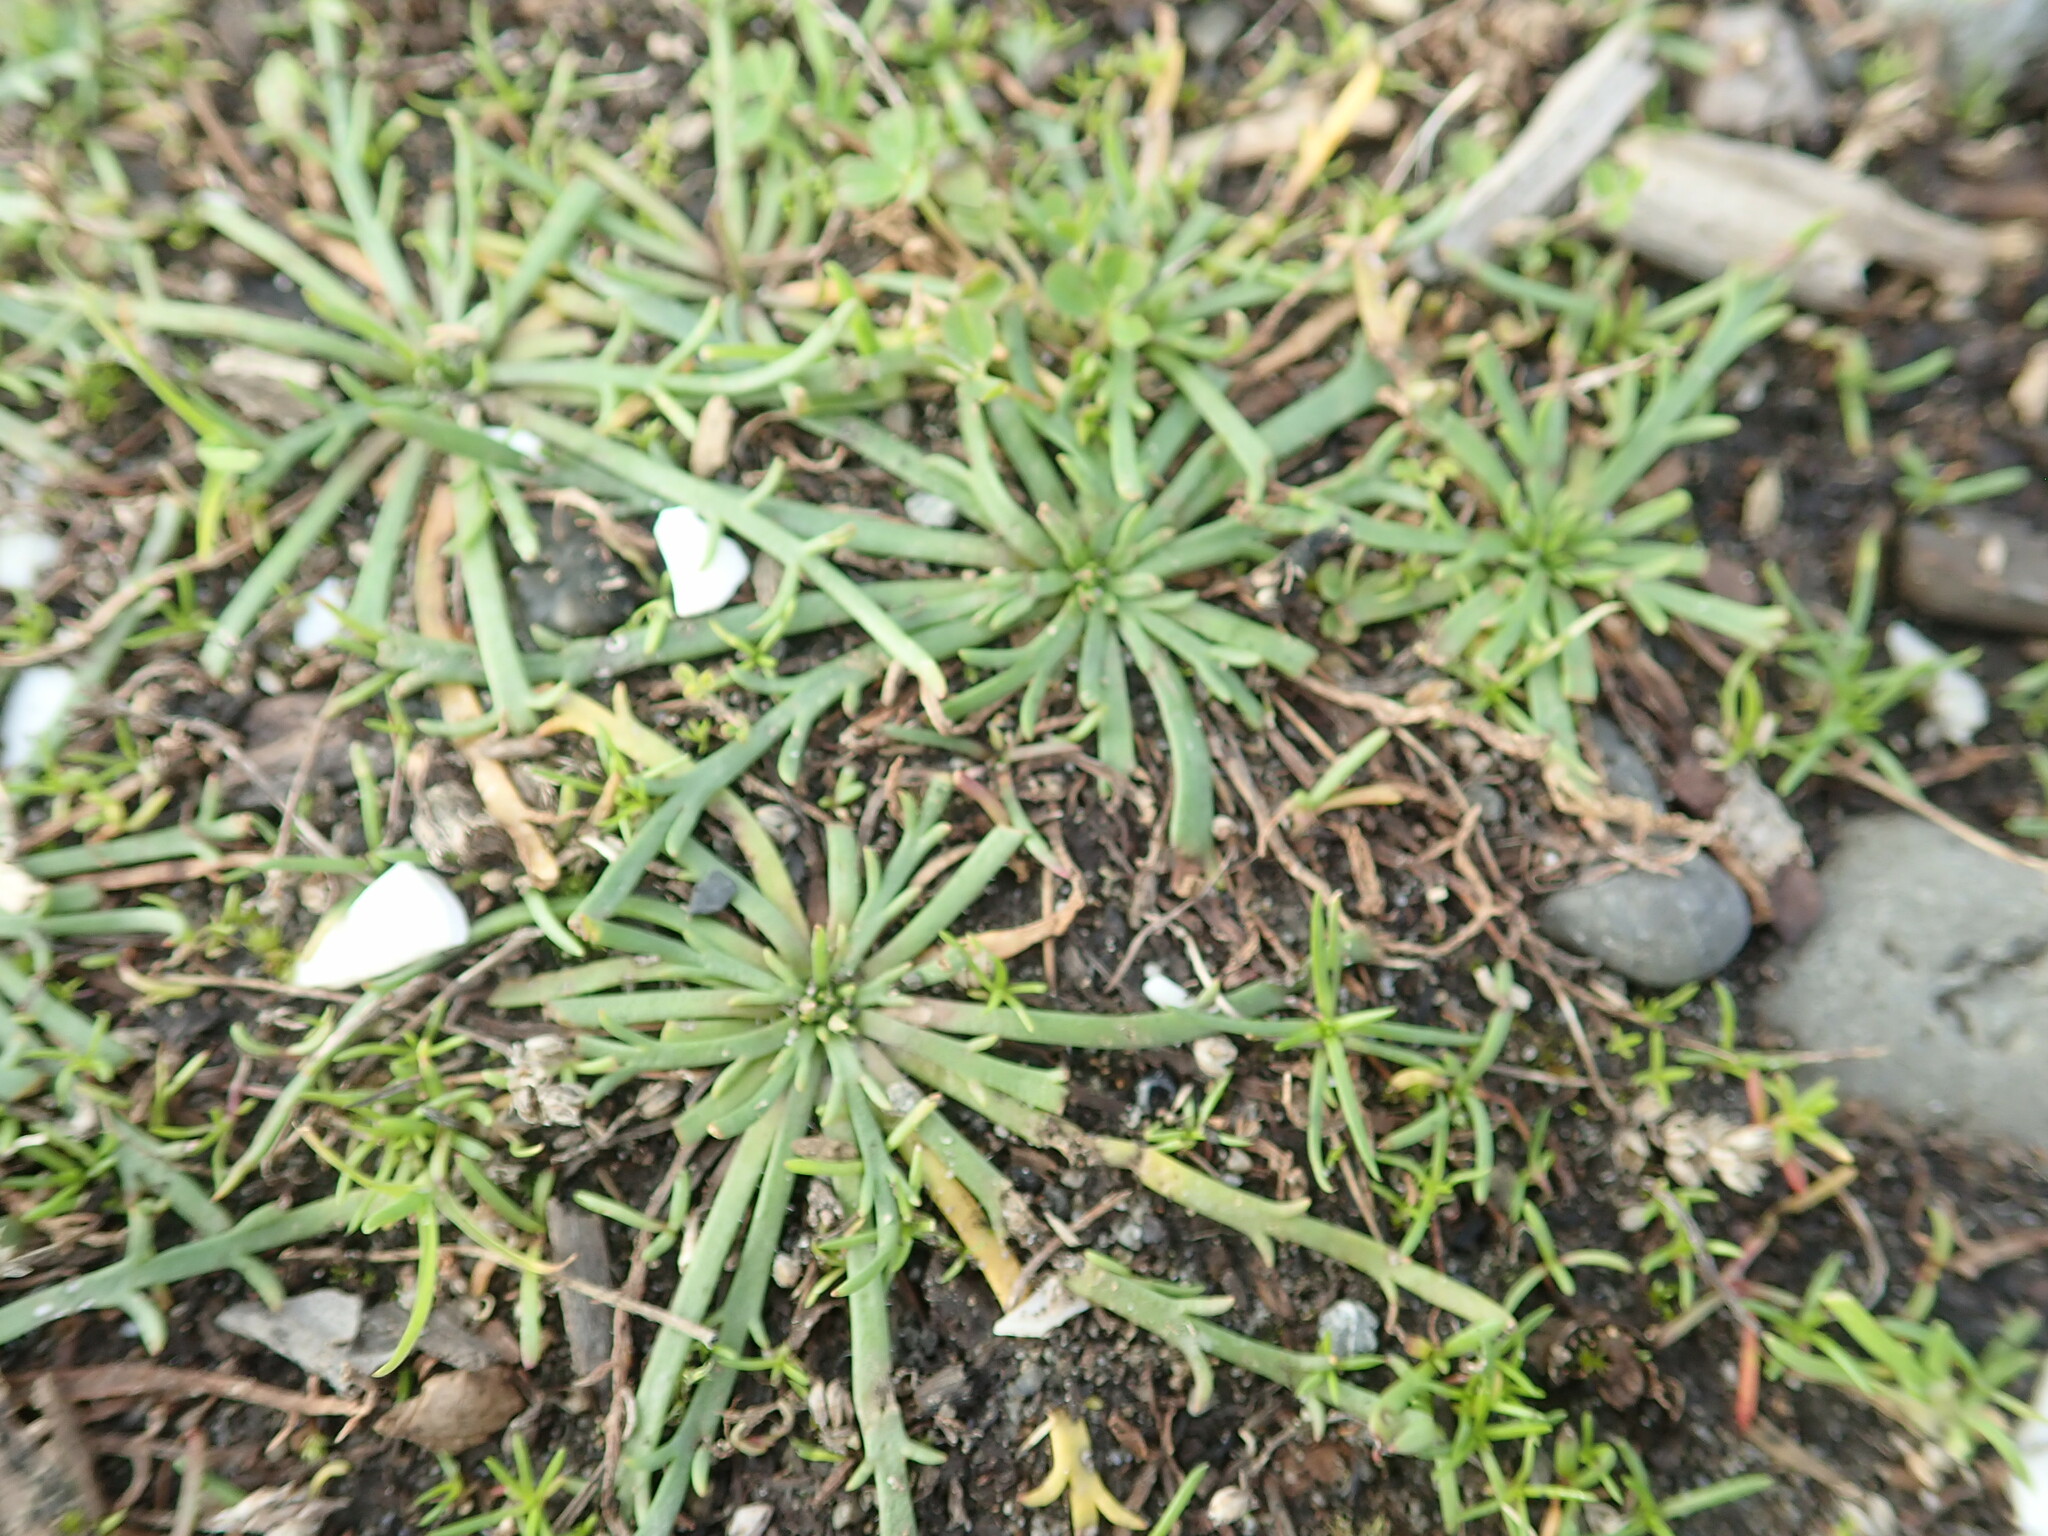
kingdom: Plantae
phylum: Tracheophyta
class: Magnoliopsida
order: Lamiales
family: Plantaginaceae
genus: Plantago
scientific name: Plantago coronopus
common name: Buck's-horn plantain
